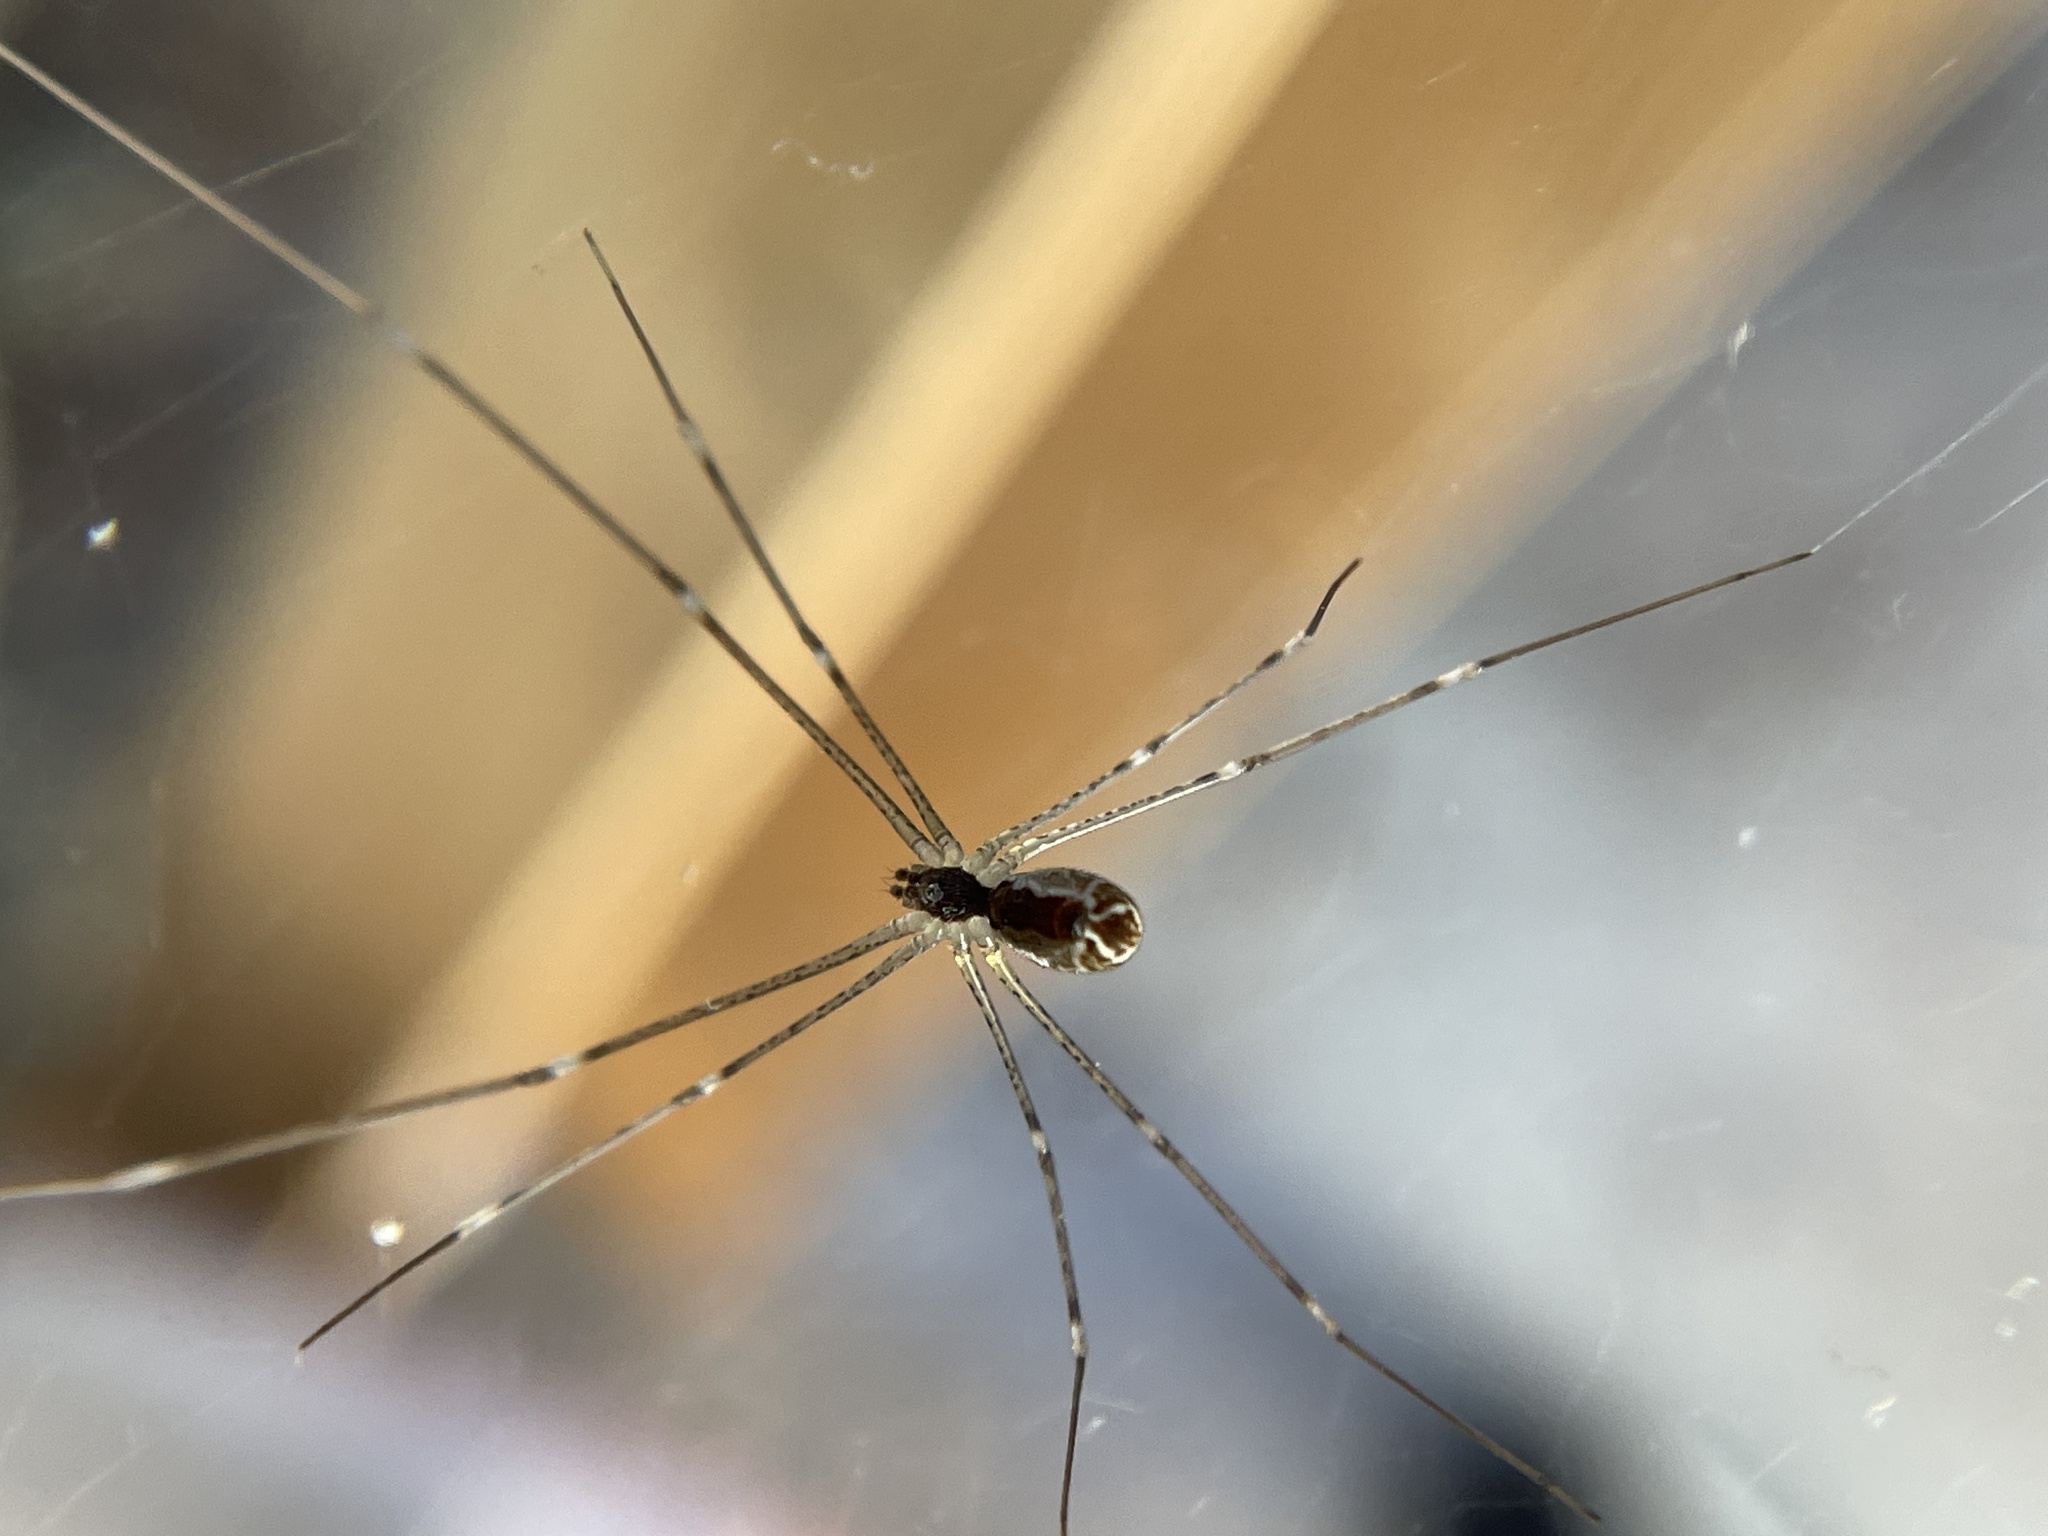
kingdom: Animalia
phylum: Arthropoda
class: Arachnida
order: Araneae
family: Pholcidae
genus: Holocnemus
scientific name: Holocnemus pluchei
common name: Marbled cellar spider
